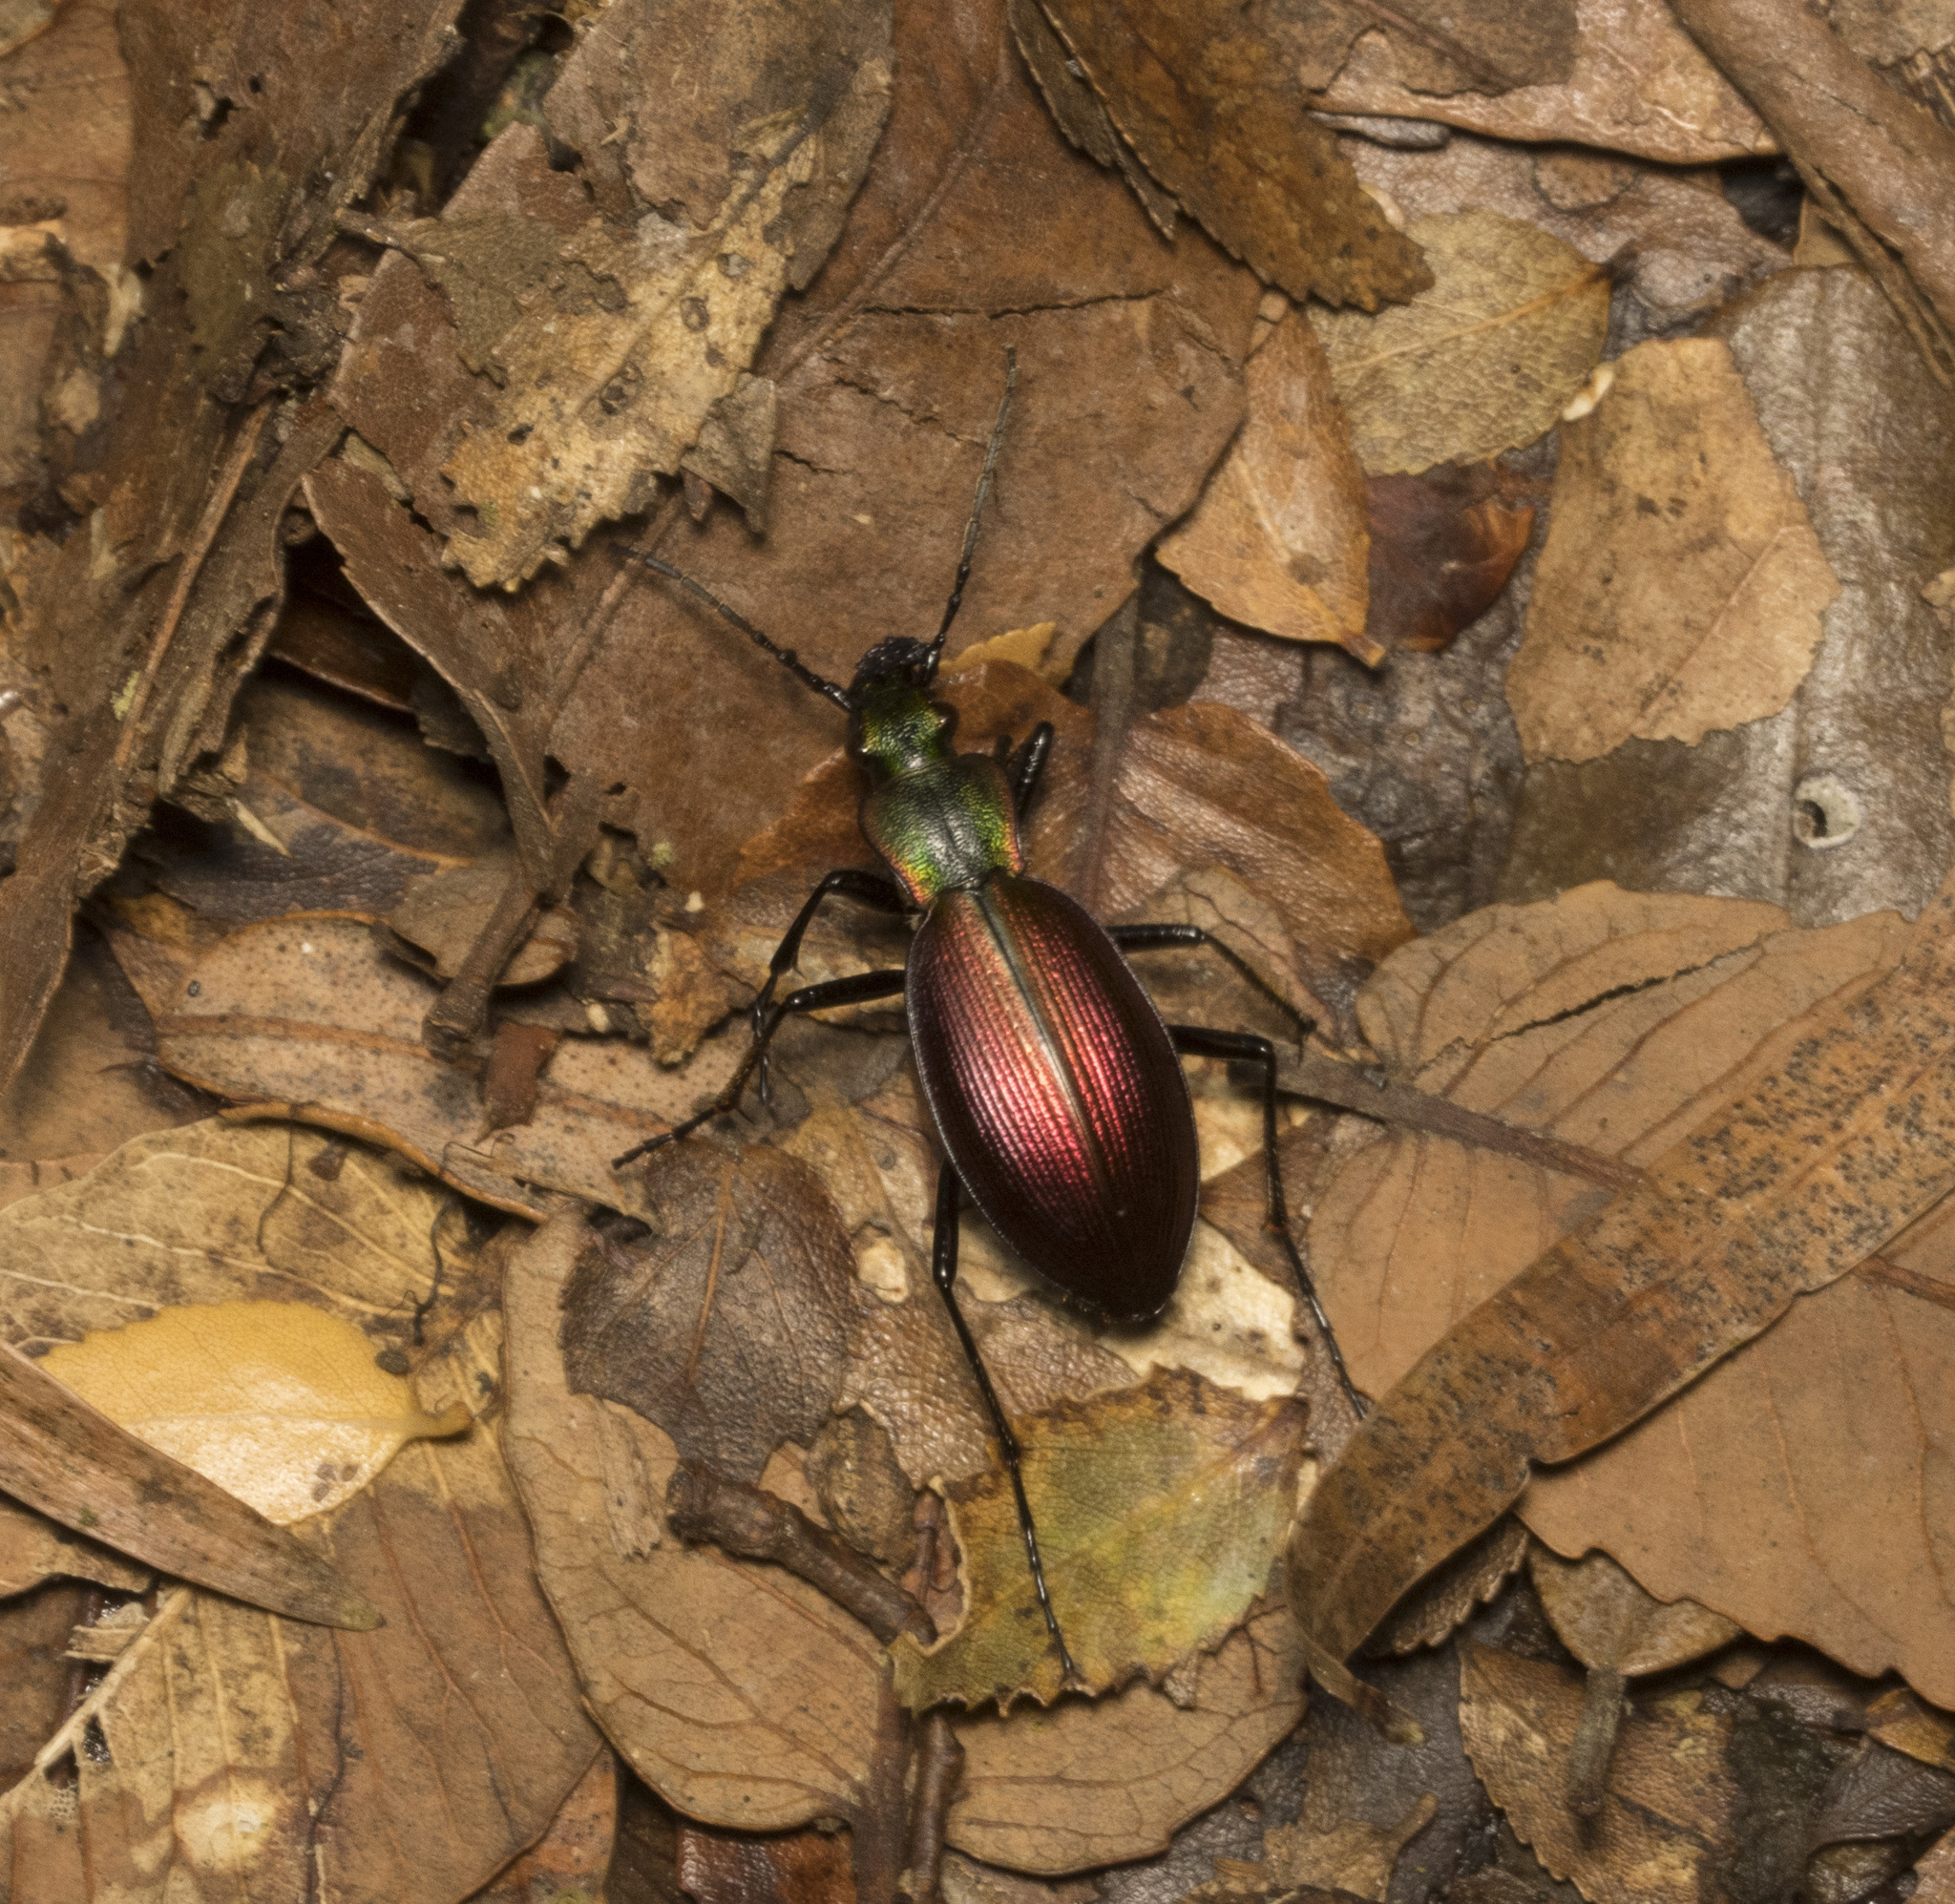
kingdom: Animalia
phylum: Arthropoda
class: Insecta
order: Coleoptera
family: Carabidae
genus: Ceroglossus
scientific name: Ceroglossus chilensis
